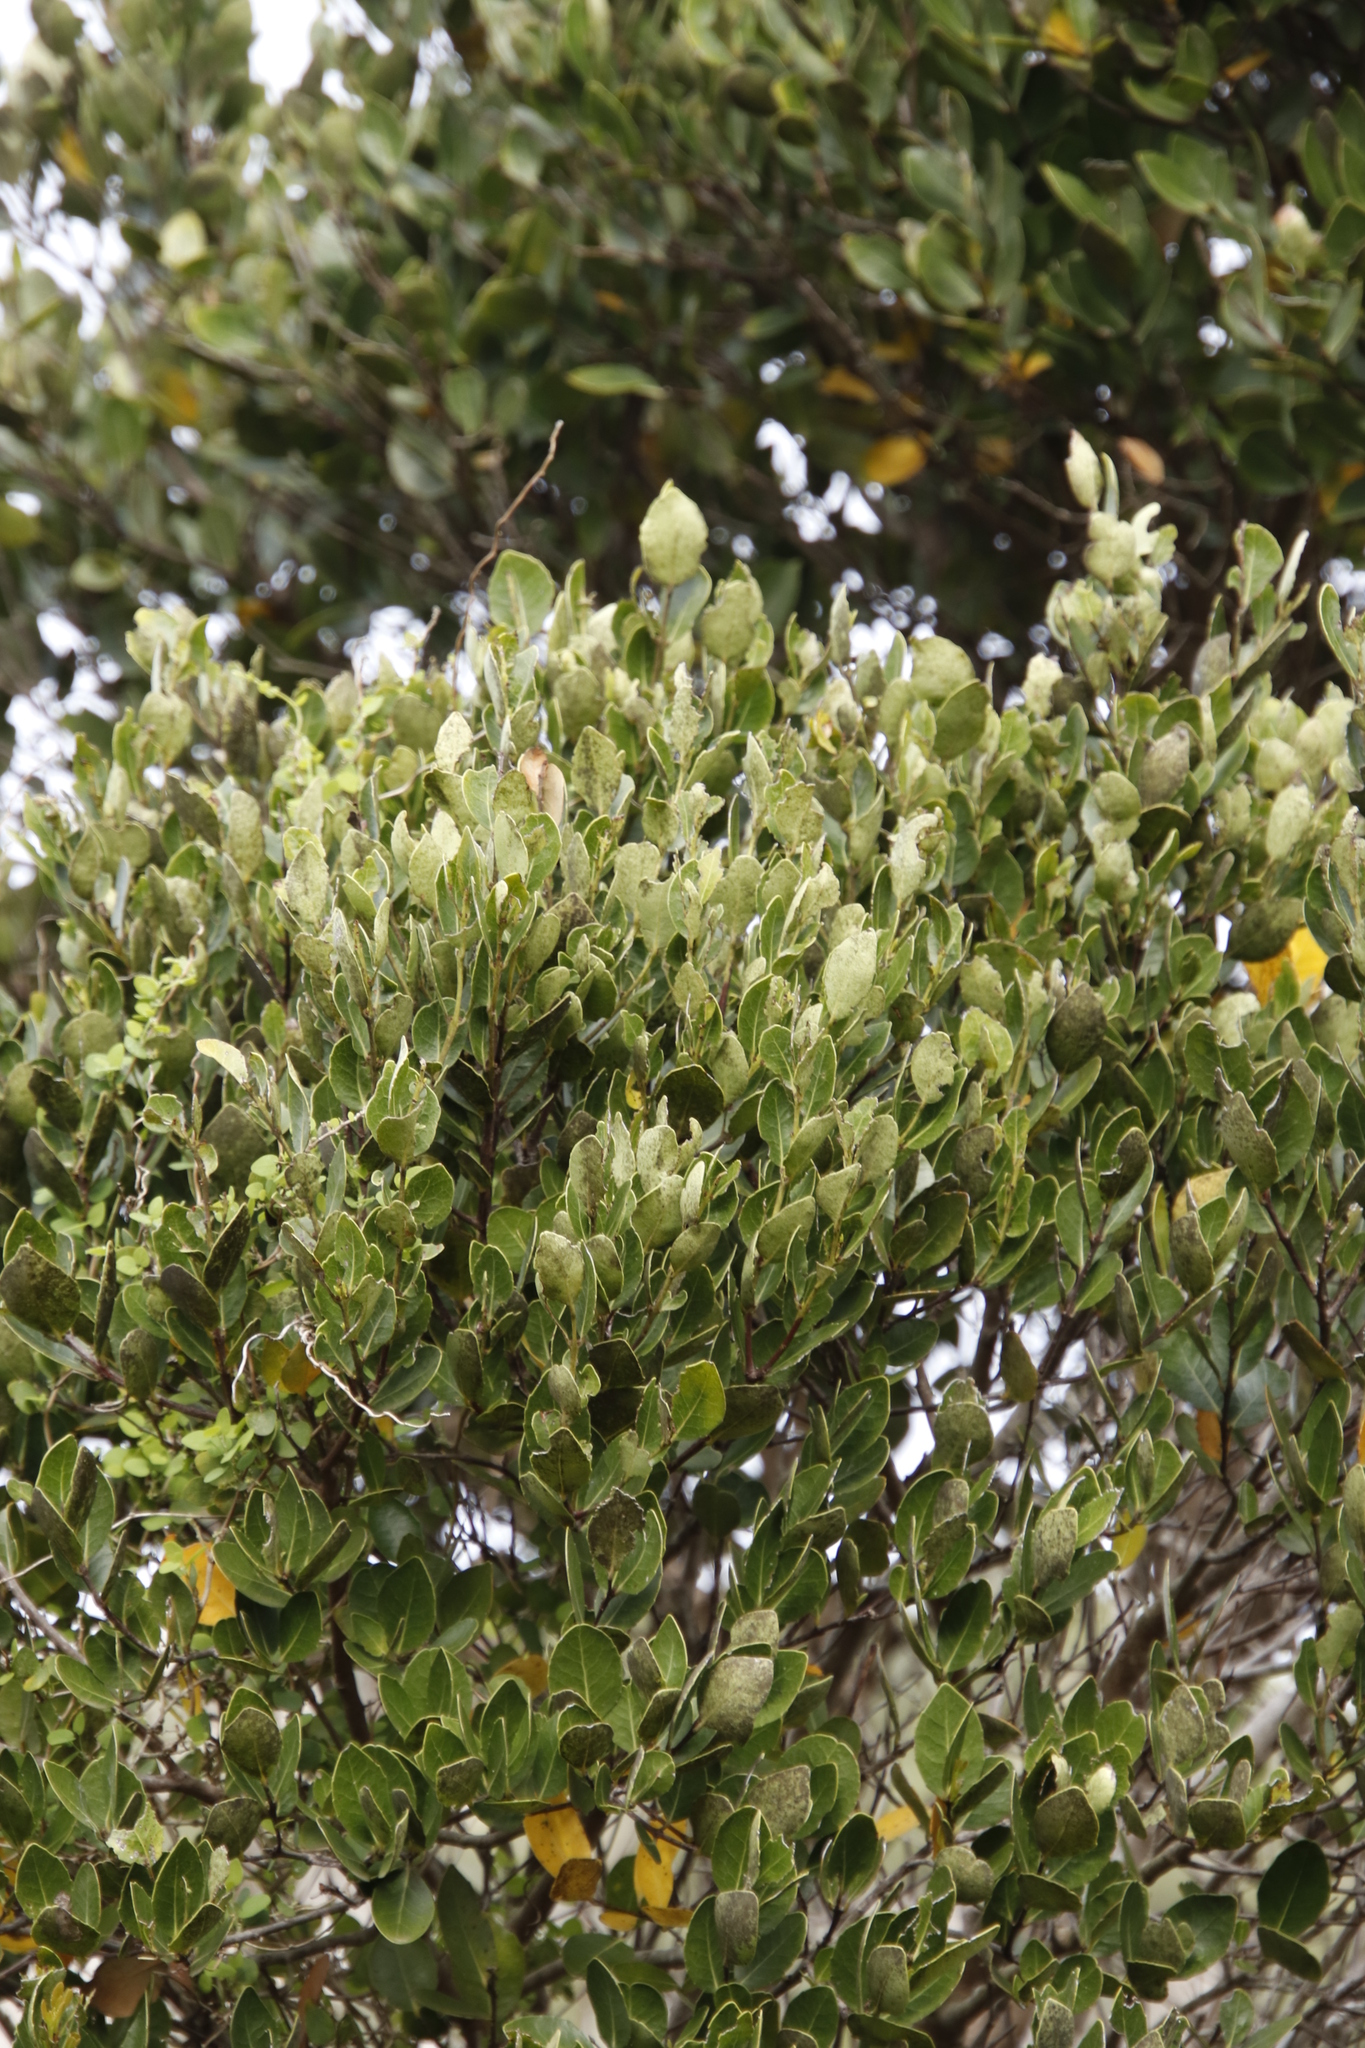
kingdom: Plantae
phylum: Tracheophyta
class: Magnoliopsida
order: Celastrales
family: Celastraceae
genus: Cassine
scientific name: Cassine peragua
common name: Cape saffron
